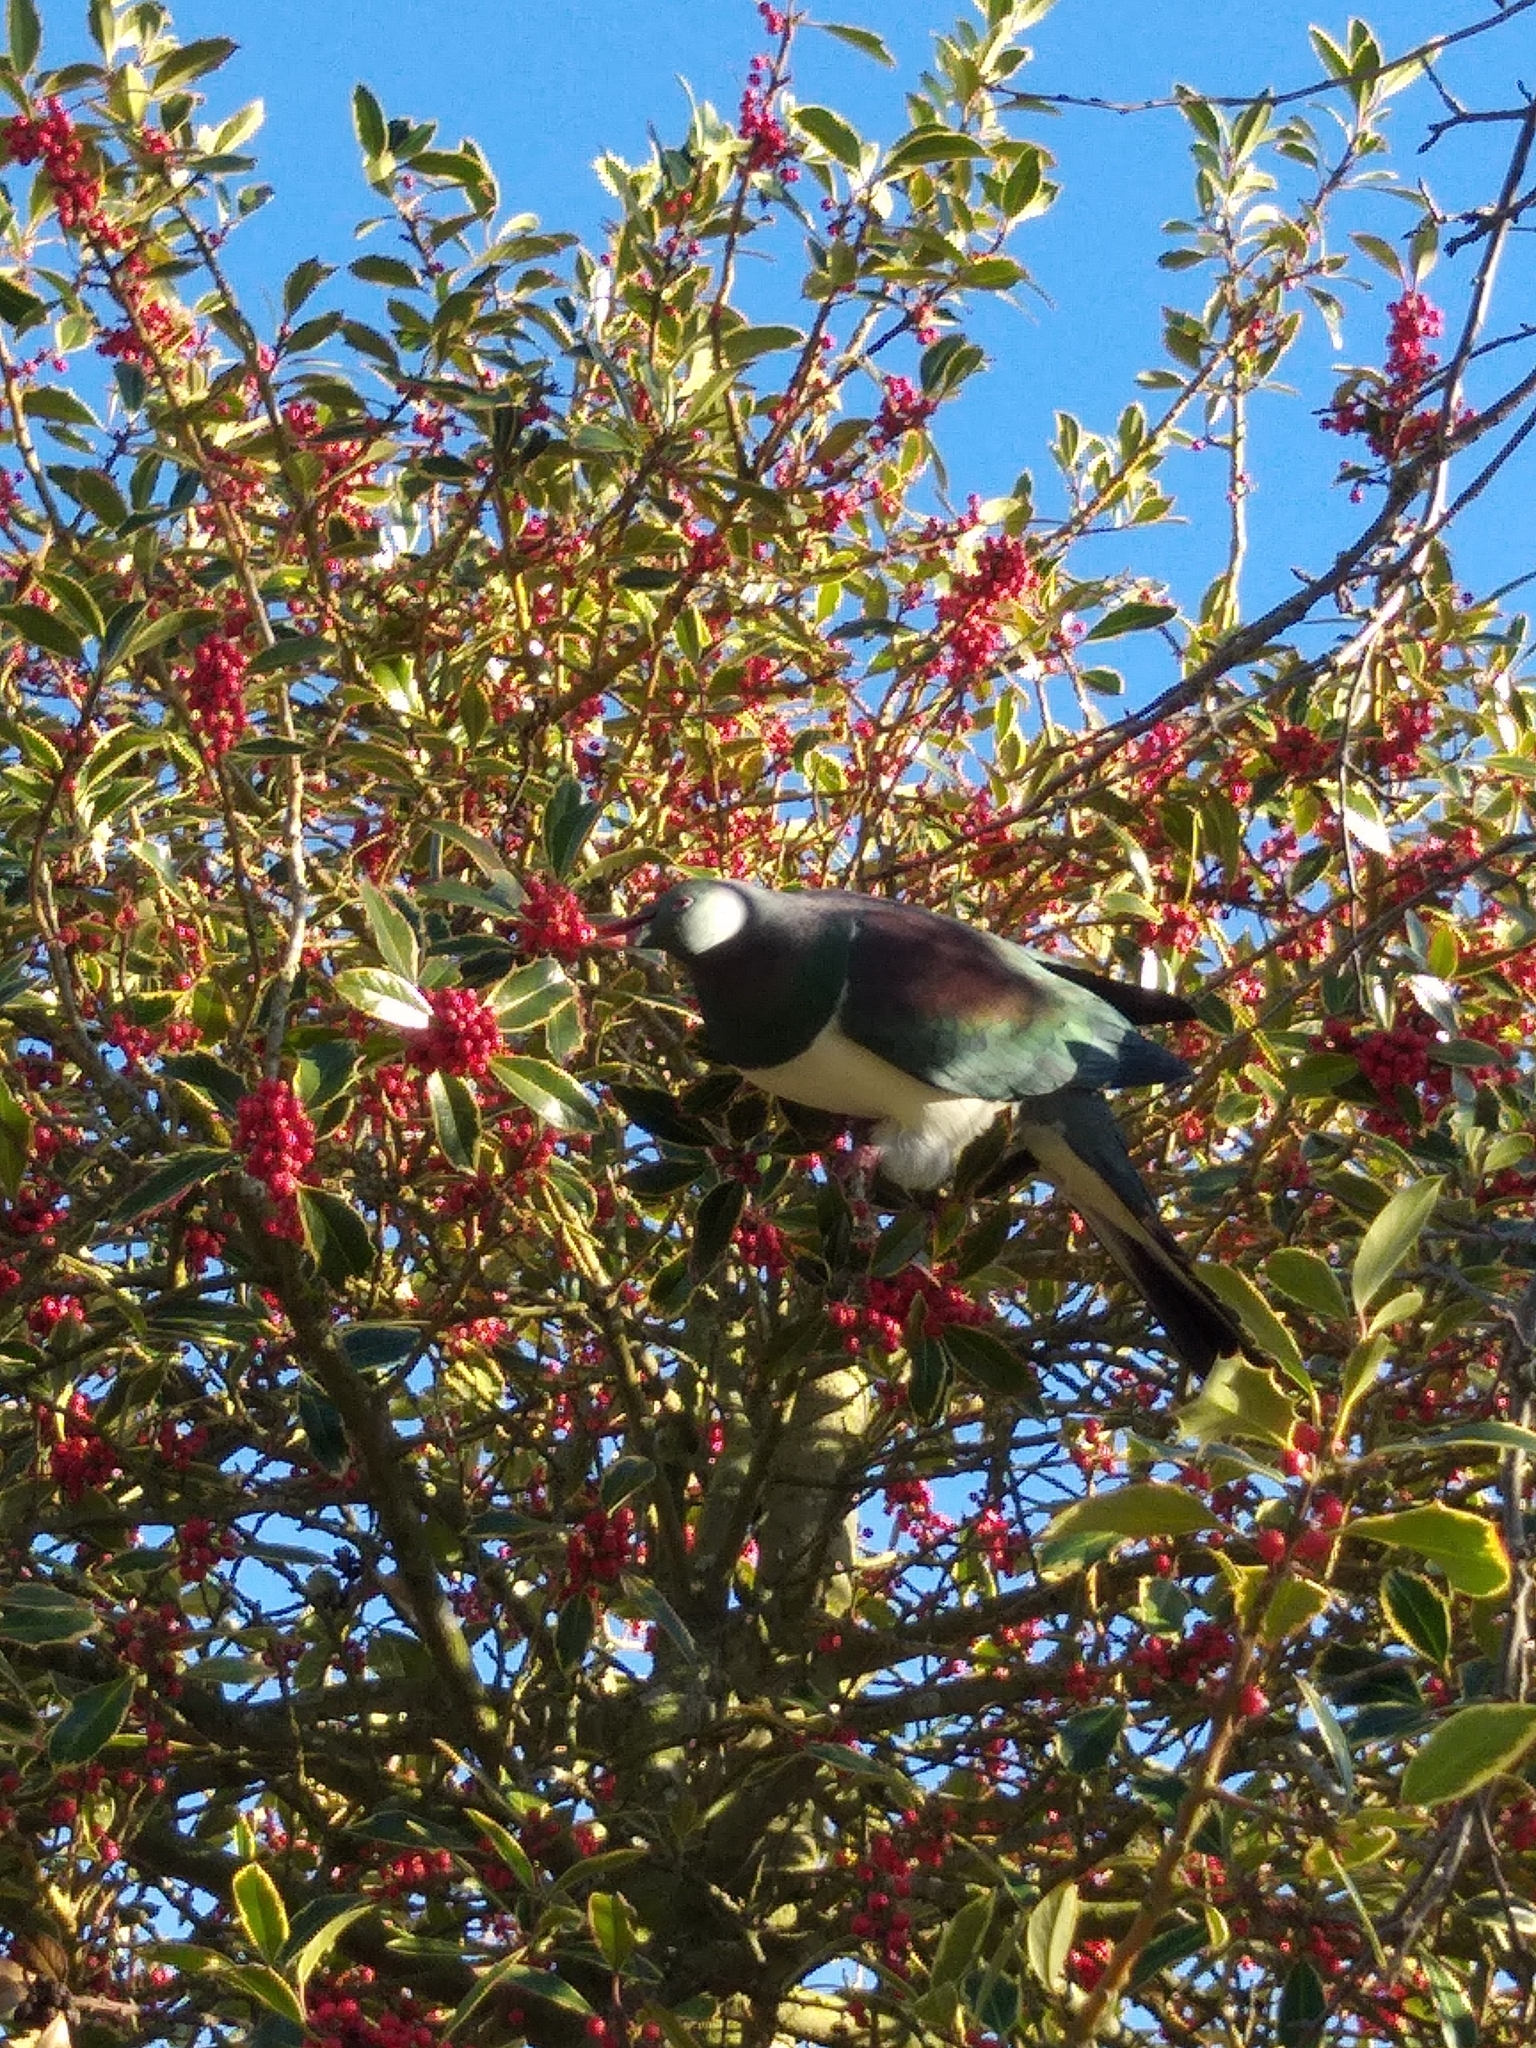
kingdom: Animalia
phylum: Chordata
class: Aves
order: Columbiformes
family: Columbidae
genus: Hemiphaga
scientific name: Hemiphaga novaeseelandiae
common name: New zealand pigeon
